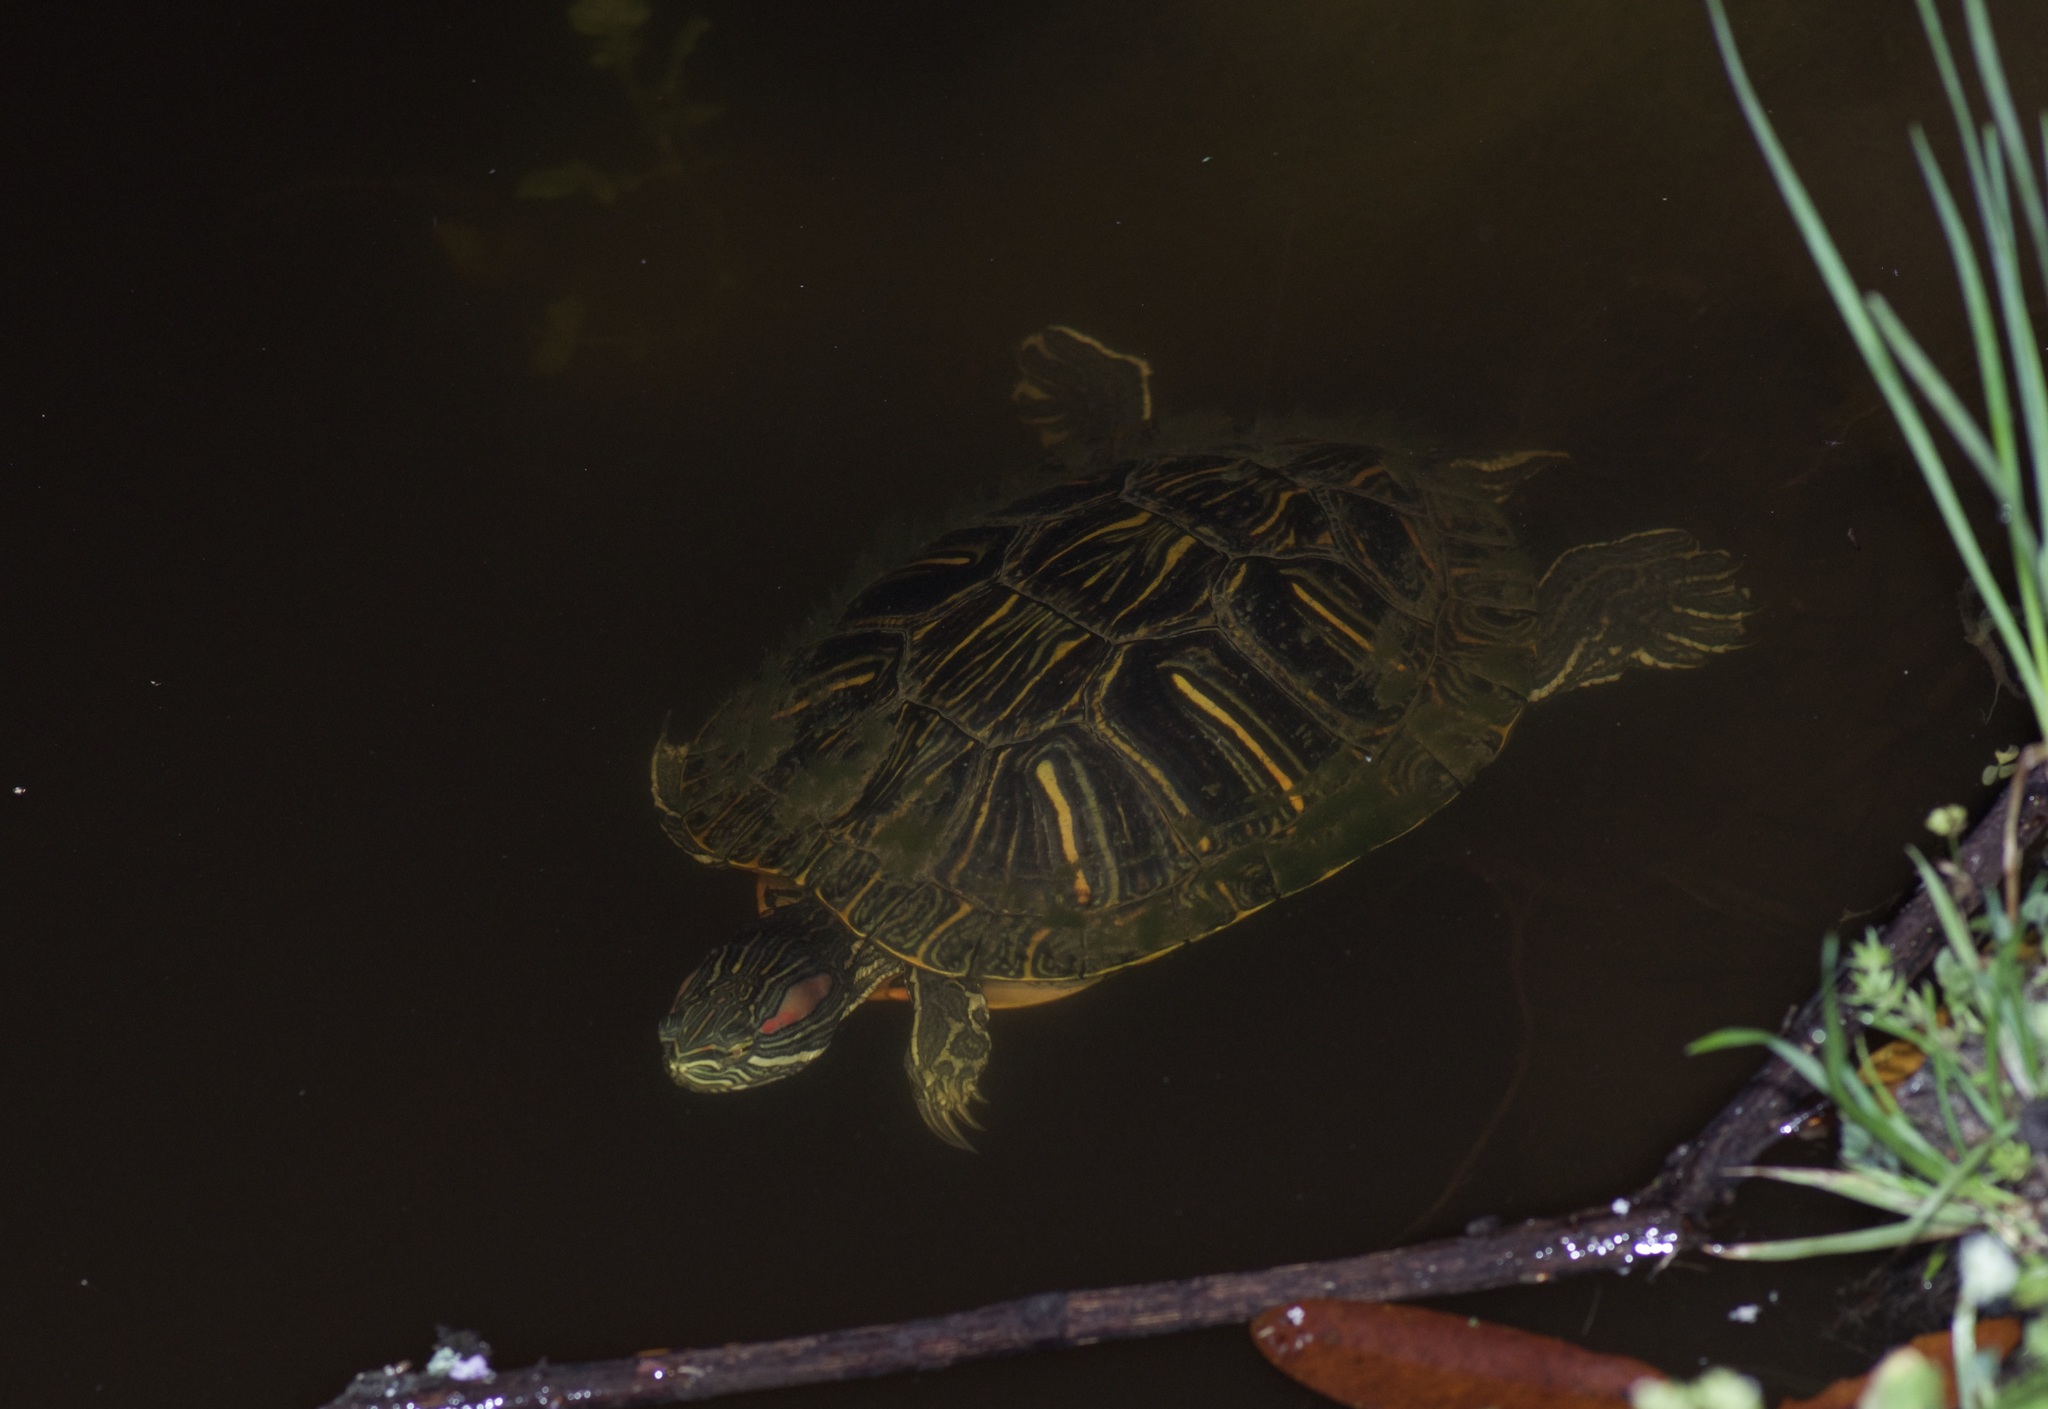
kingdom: Animalia
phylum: Chordata
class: Testudines
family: Emydidae
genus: Trachemys
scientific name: Trachemys scripta
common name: Slider
